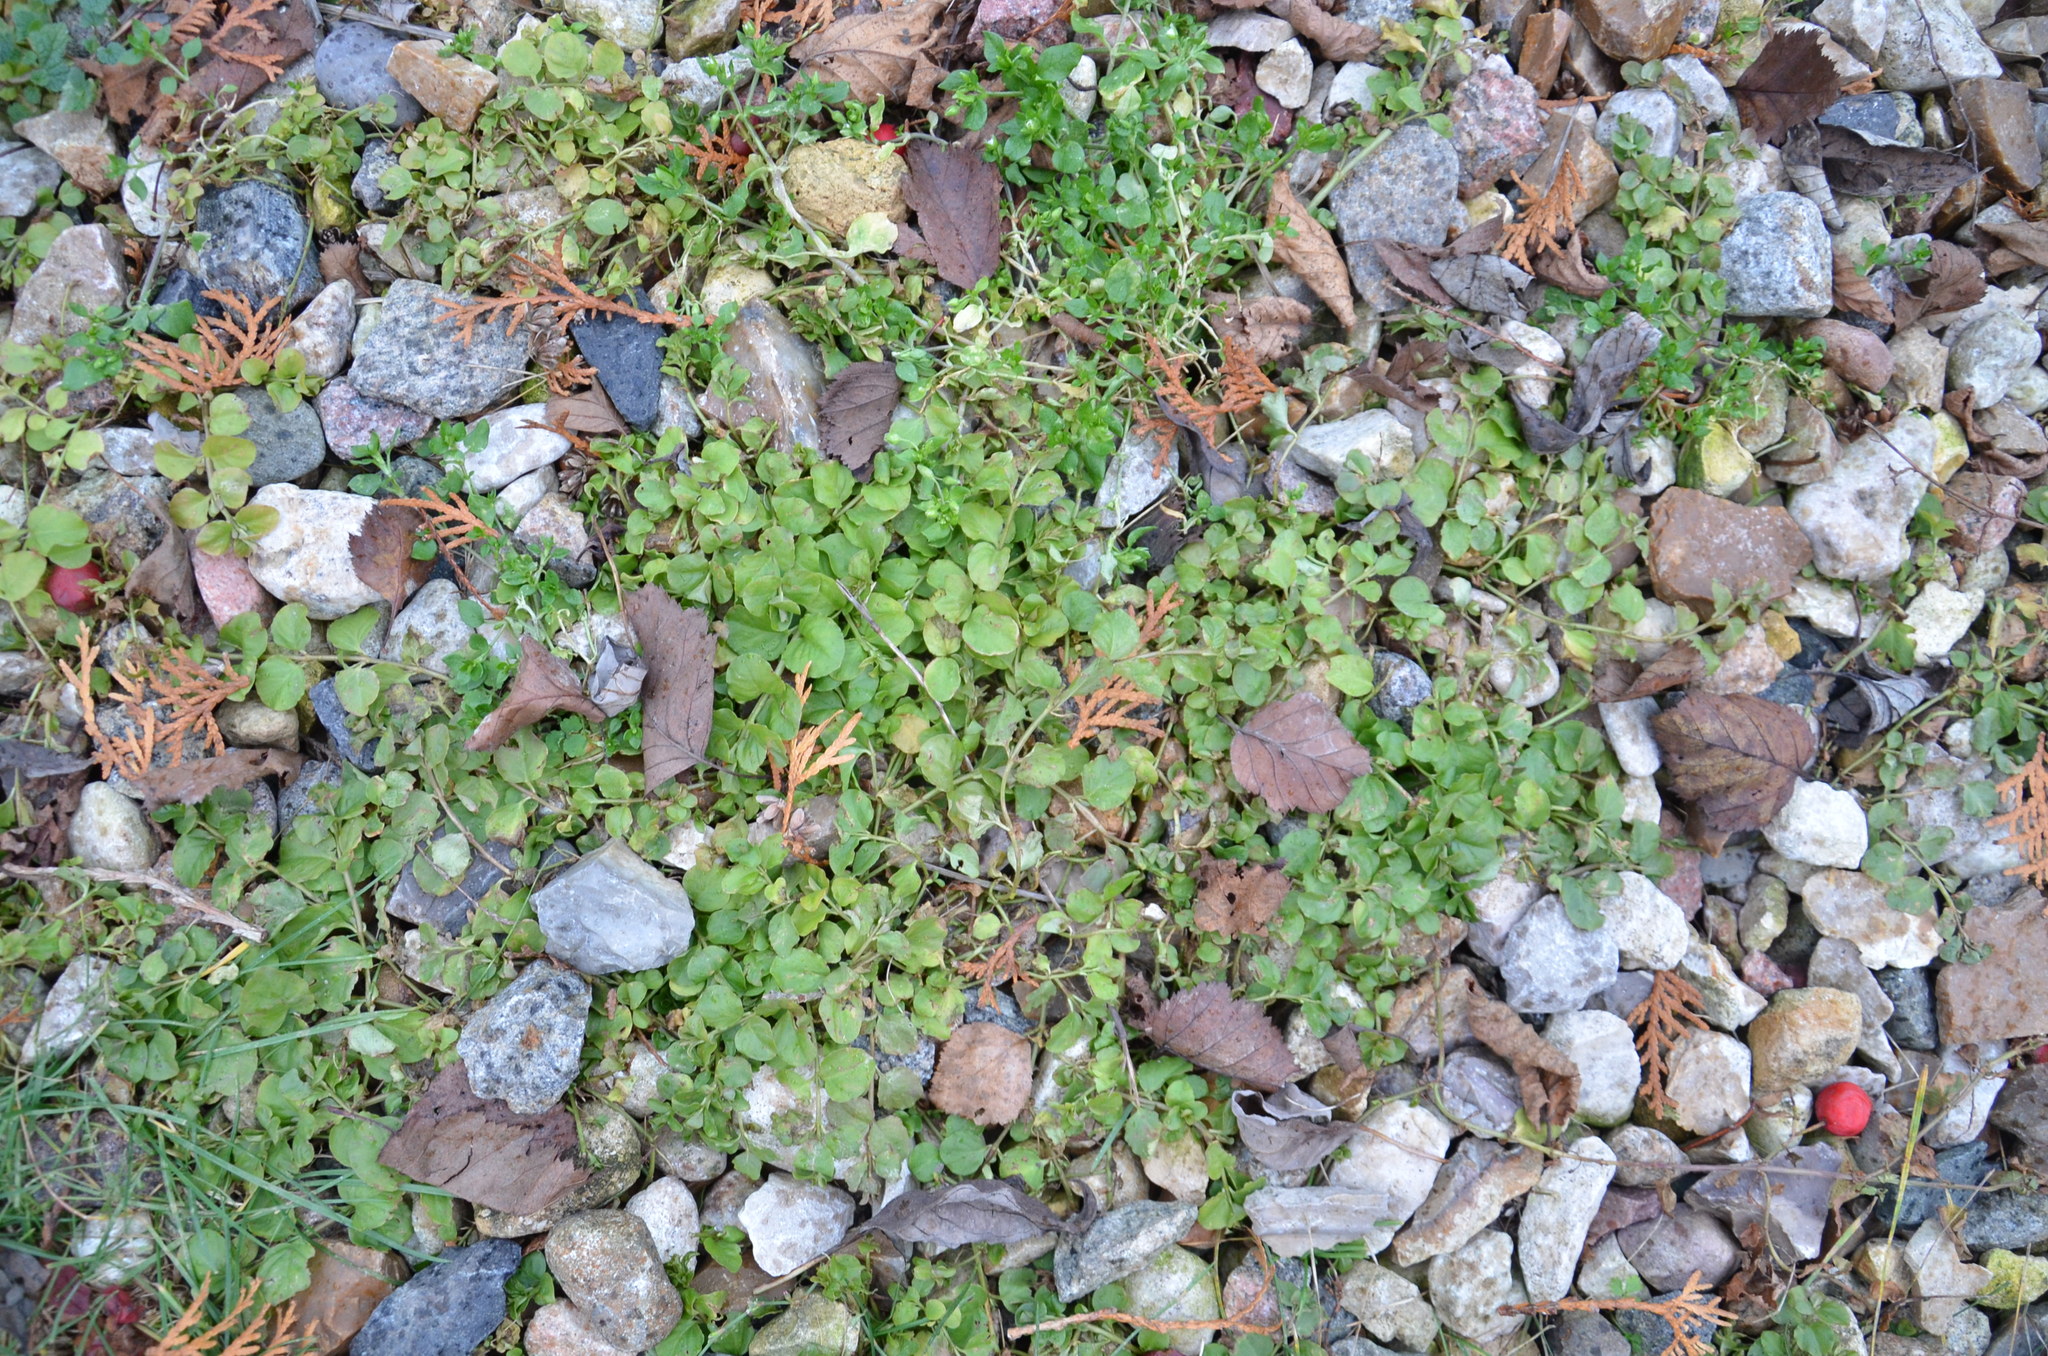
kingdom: Plantae
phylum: Tracheophyta
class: Magnoliopsida
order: Ericales
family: Primulaceae
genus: Lysimachia
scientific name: Lysimachia nummularia
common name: Moneywort
